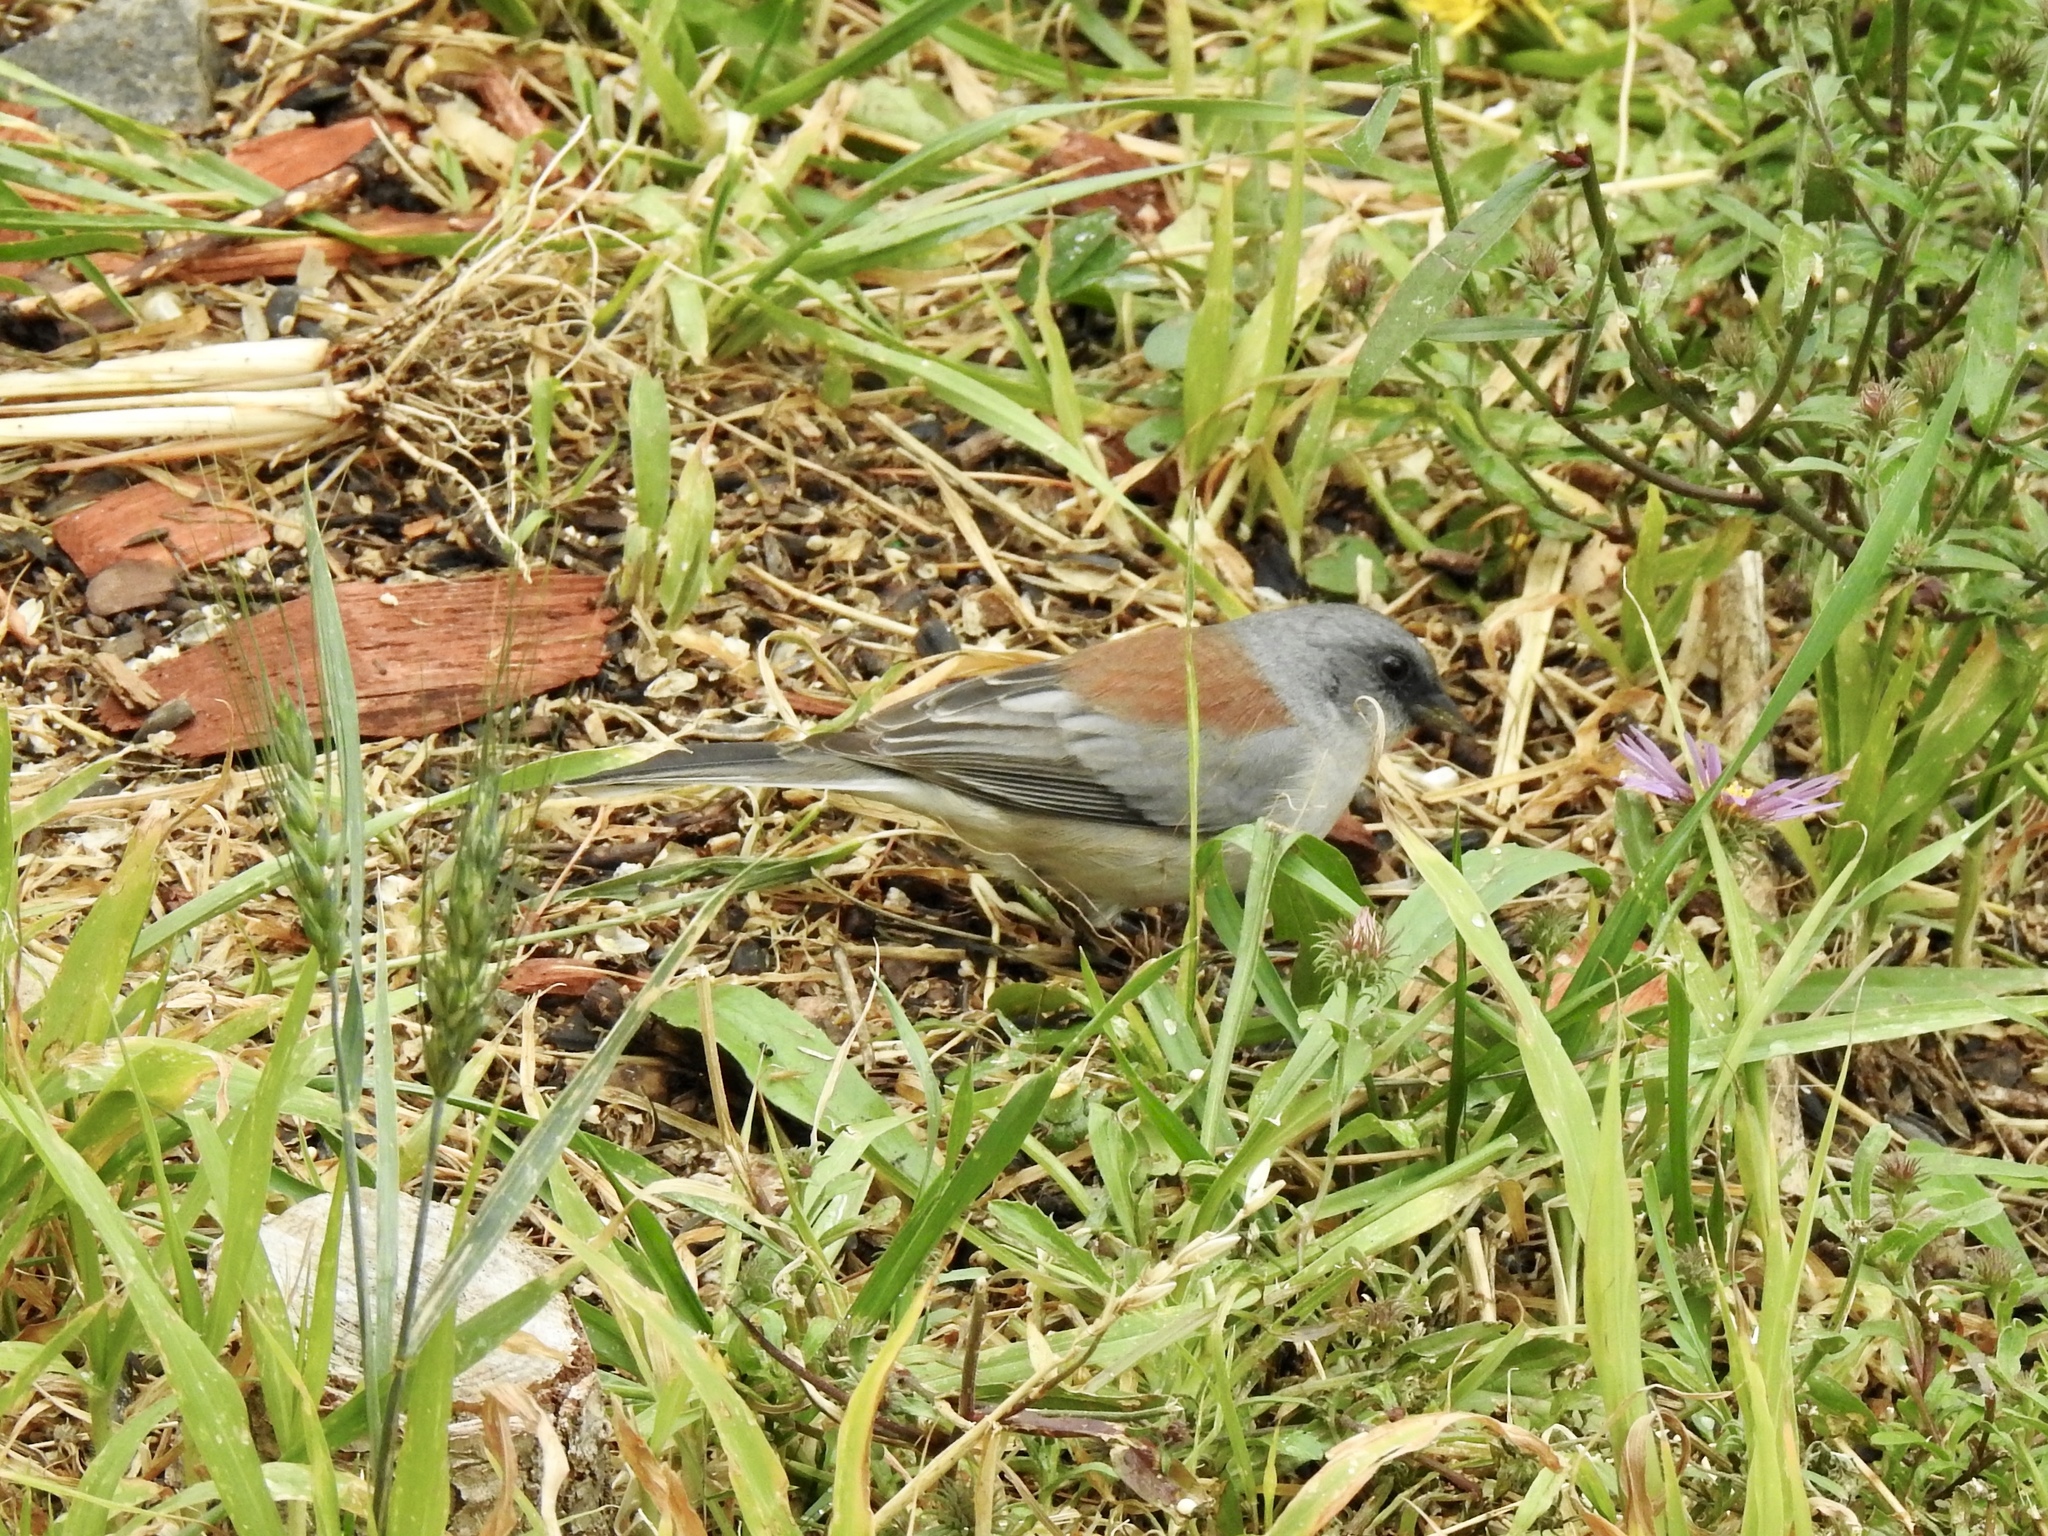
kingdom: Animalia
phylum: Chordata
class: Aves
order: Passeriformes
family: Passerellidae
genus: Junco
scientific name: Junco hyemalis
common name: Dark-eyed junco
